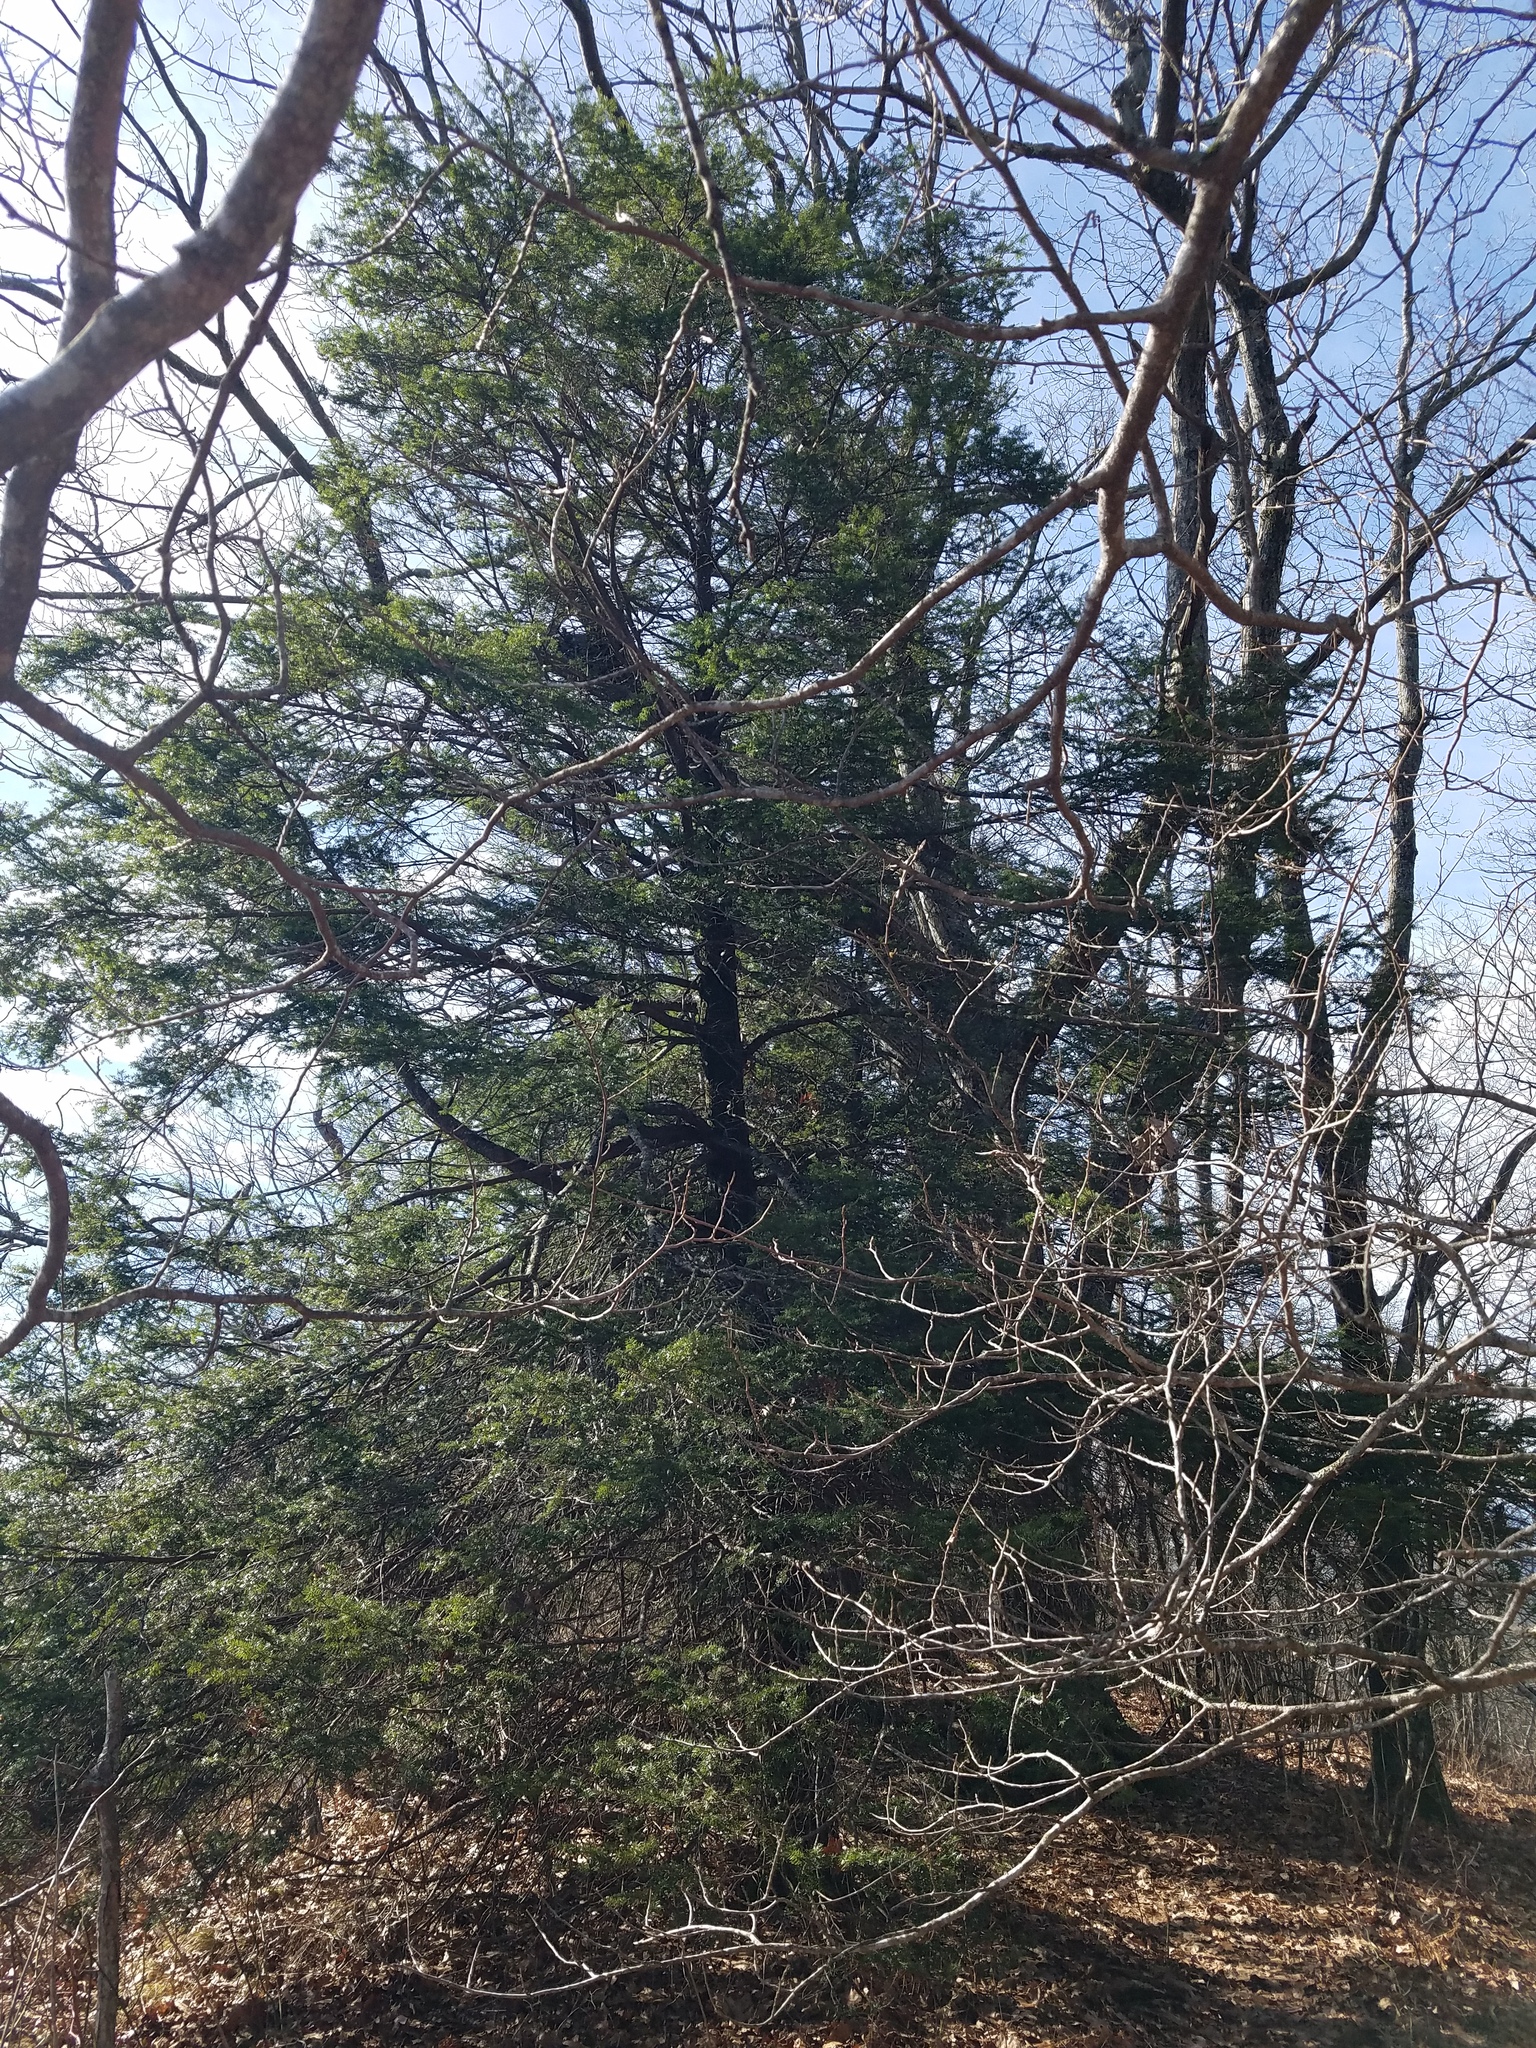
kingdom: Plantae
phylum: Tracheophyta
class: Pinopsida
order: Pinales
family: Pinaceae
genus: Tsuga
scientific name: Tsuga caroliniana
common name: Carolina hemlock
